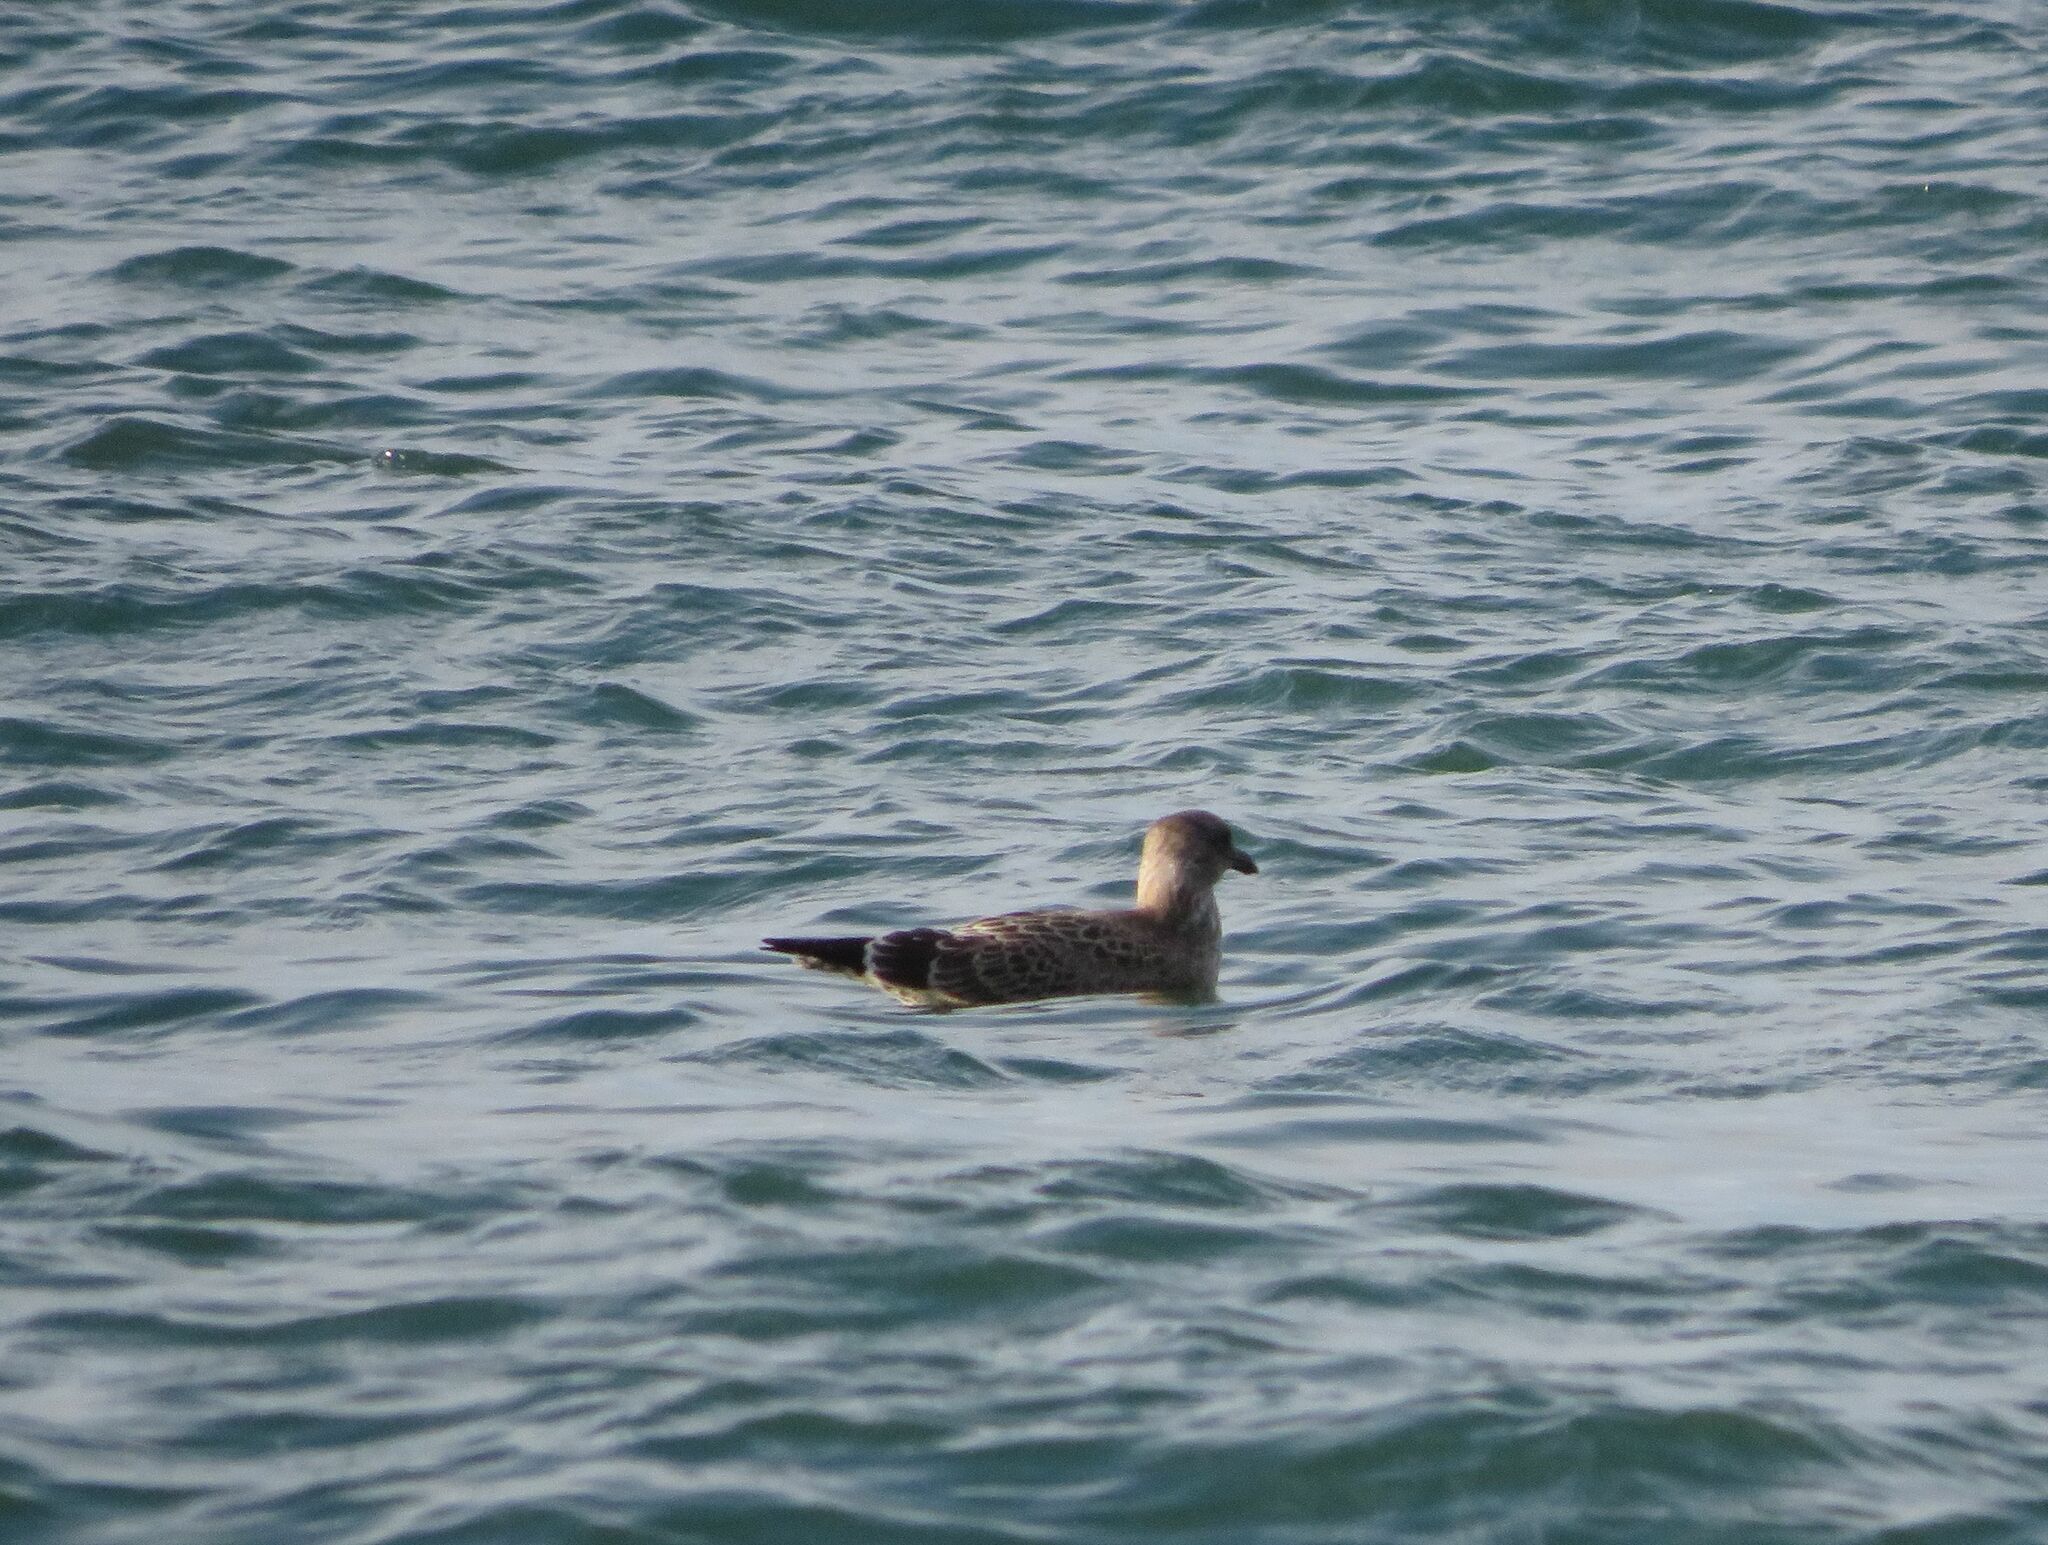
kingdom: Animalia
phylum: Chordata
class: Aves
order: Charadriiformes
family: Laridae
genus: Larus
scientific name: Larus dominicanus
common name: Kelp gull
